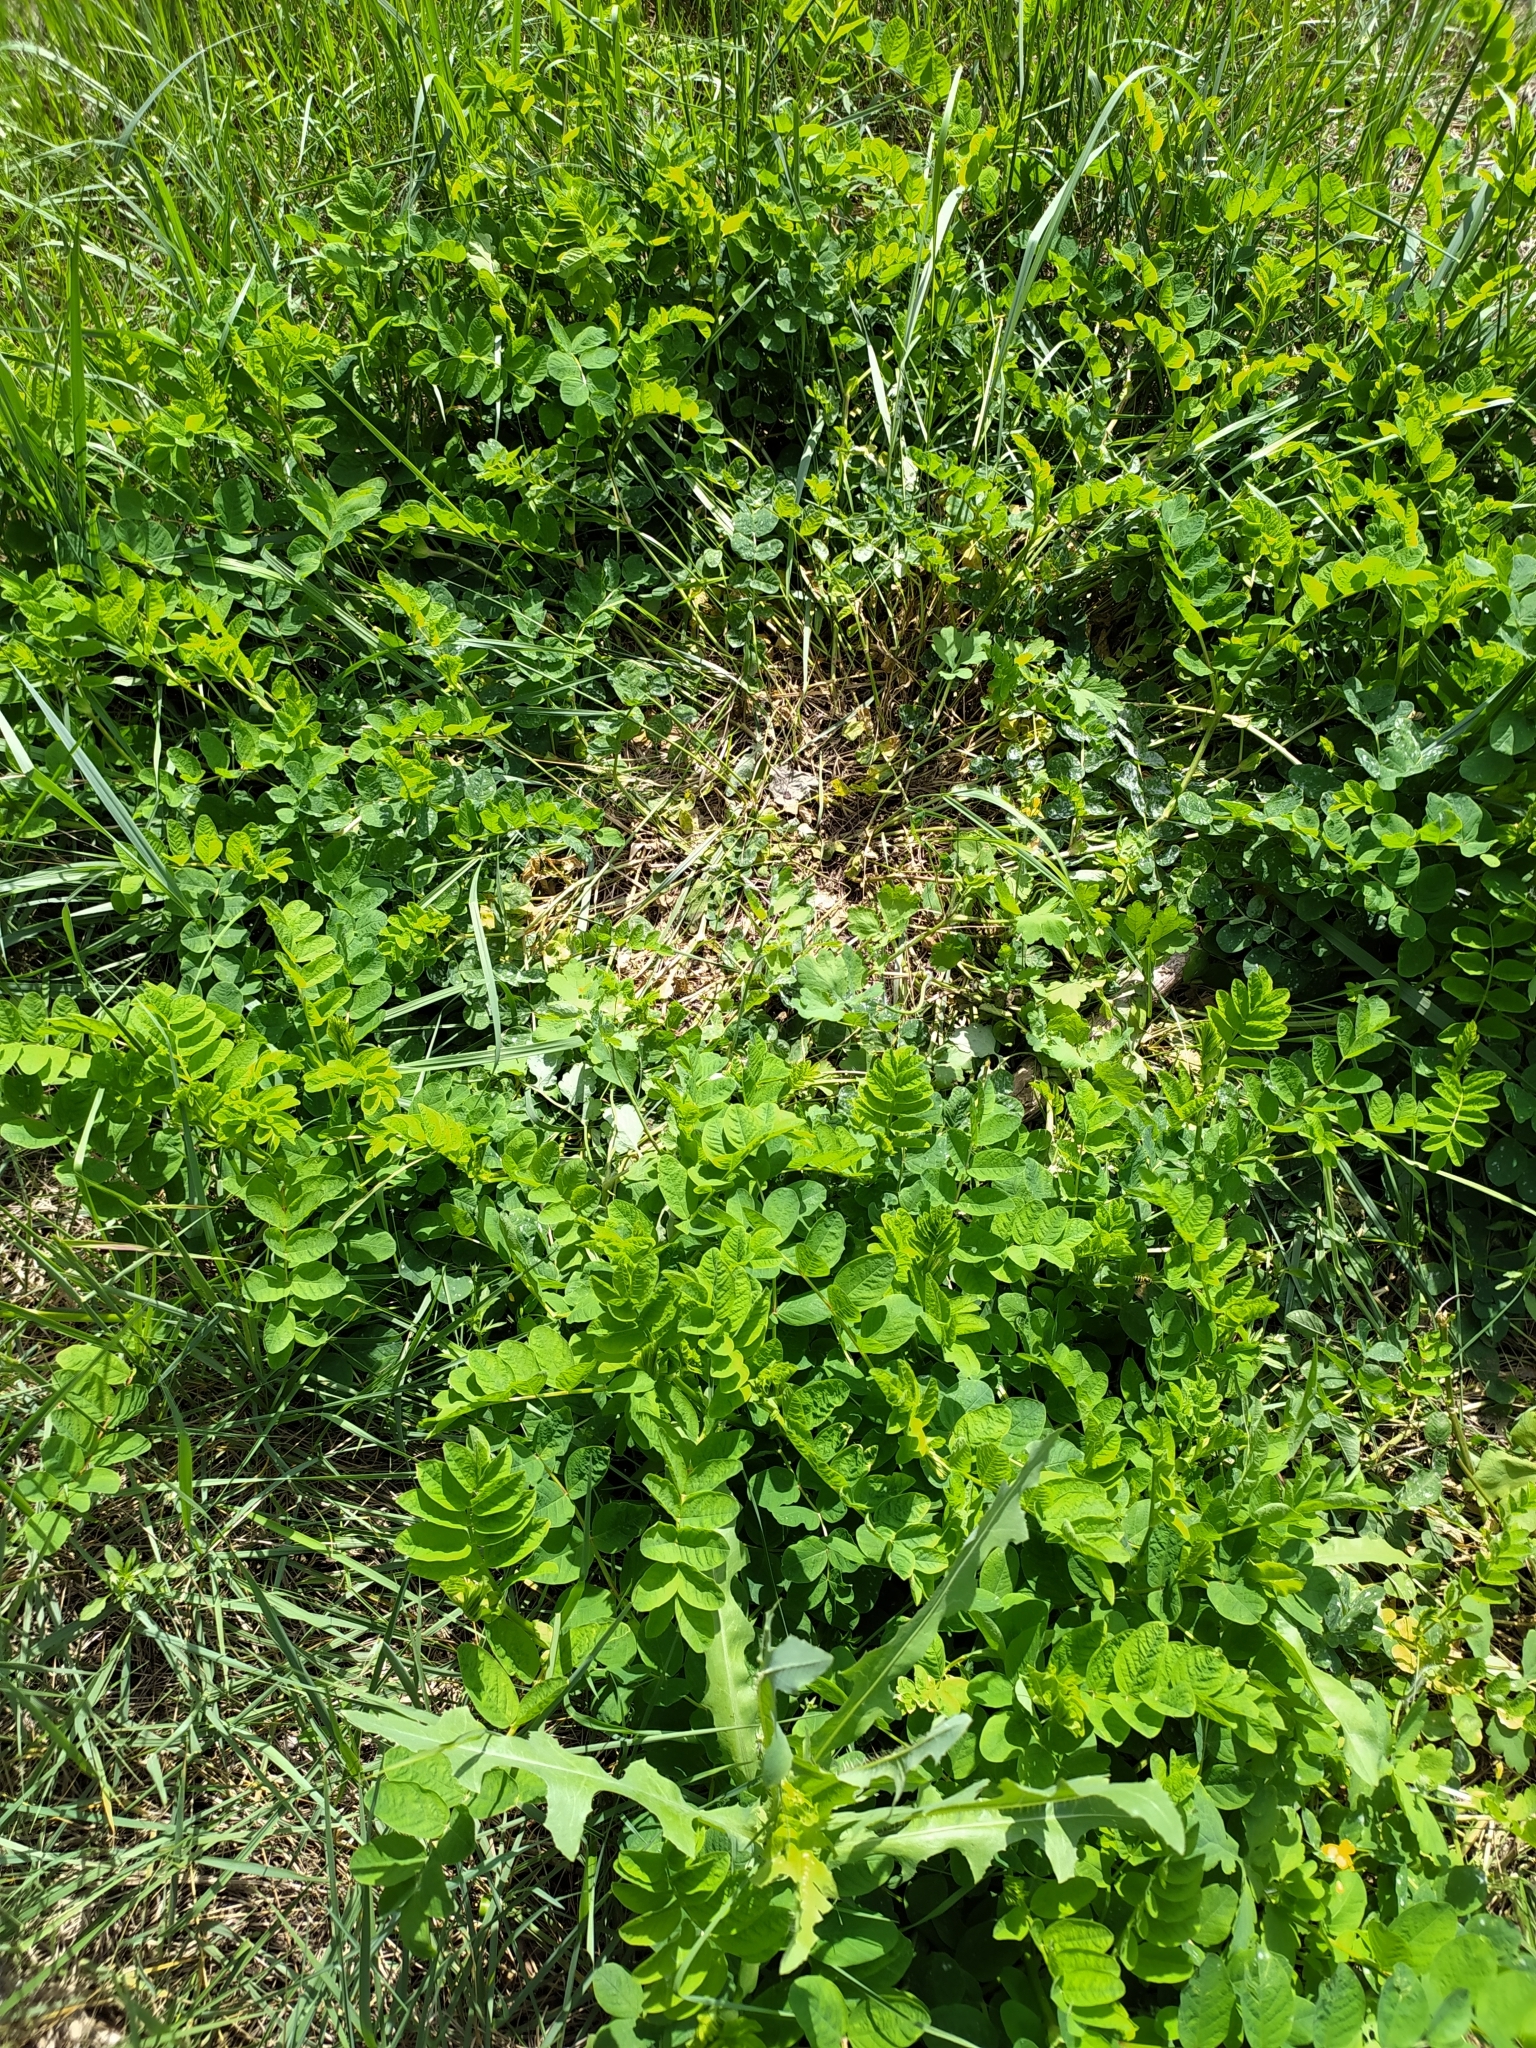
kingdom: Plantae
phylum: Tracheophyta
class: Magnoliopsida
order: Fabales
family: Fabaceae
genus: Astragalus
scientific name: Astragalus glycyphyllos
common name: Wild liquorice
